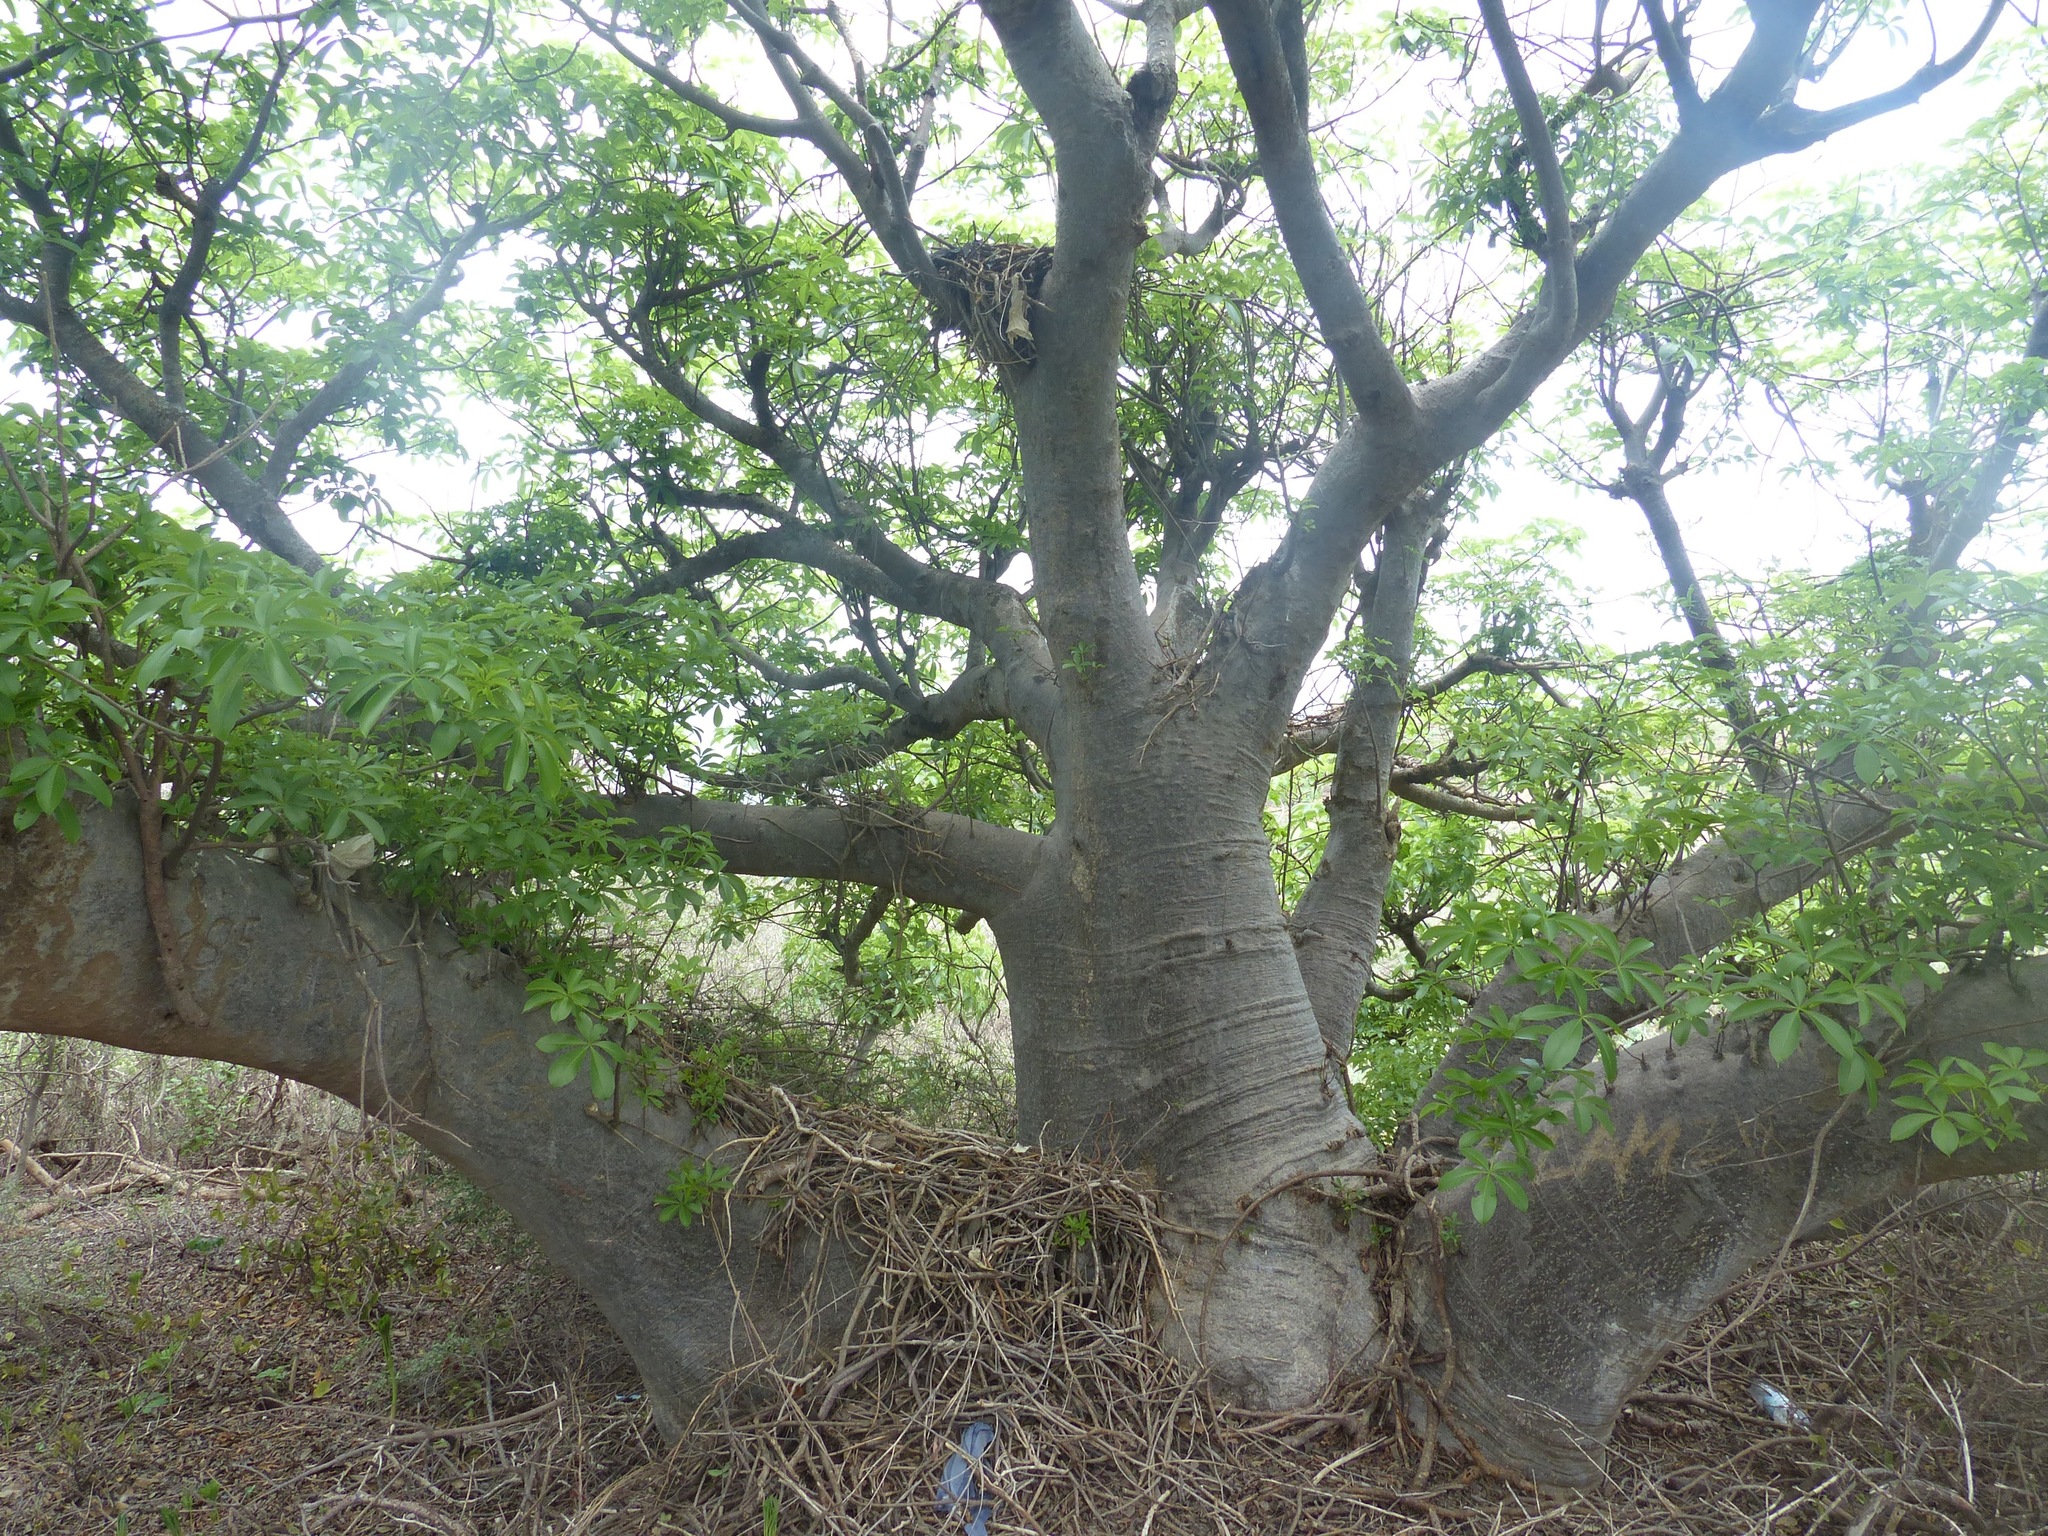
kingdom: Plantae
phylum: Tracheophyta
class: Magnoliopsida
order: Malvales
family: Malvaceae
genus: Adansonia
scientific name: Adansonia digitata
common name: Dead-rat-tree
